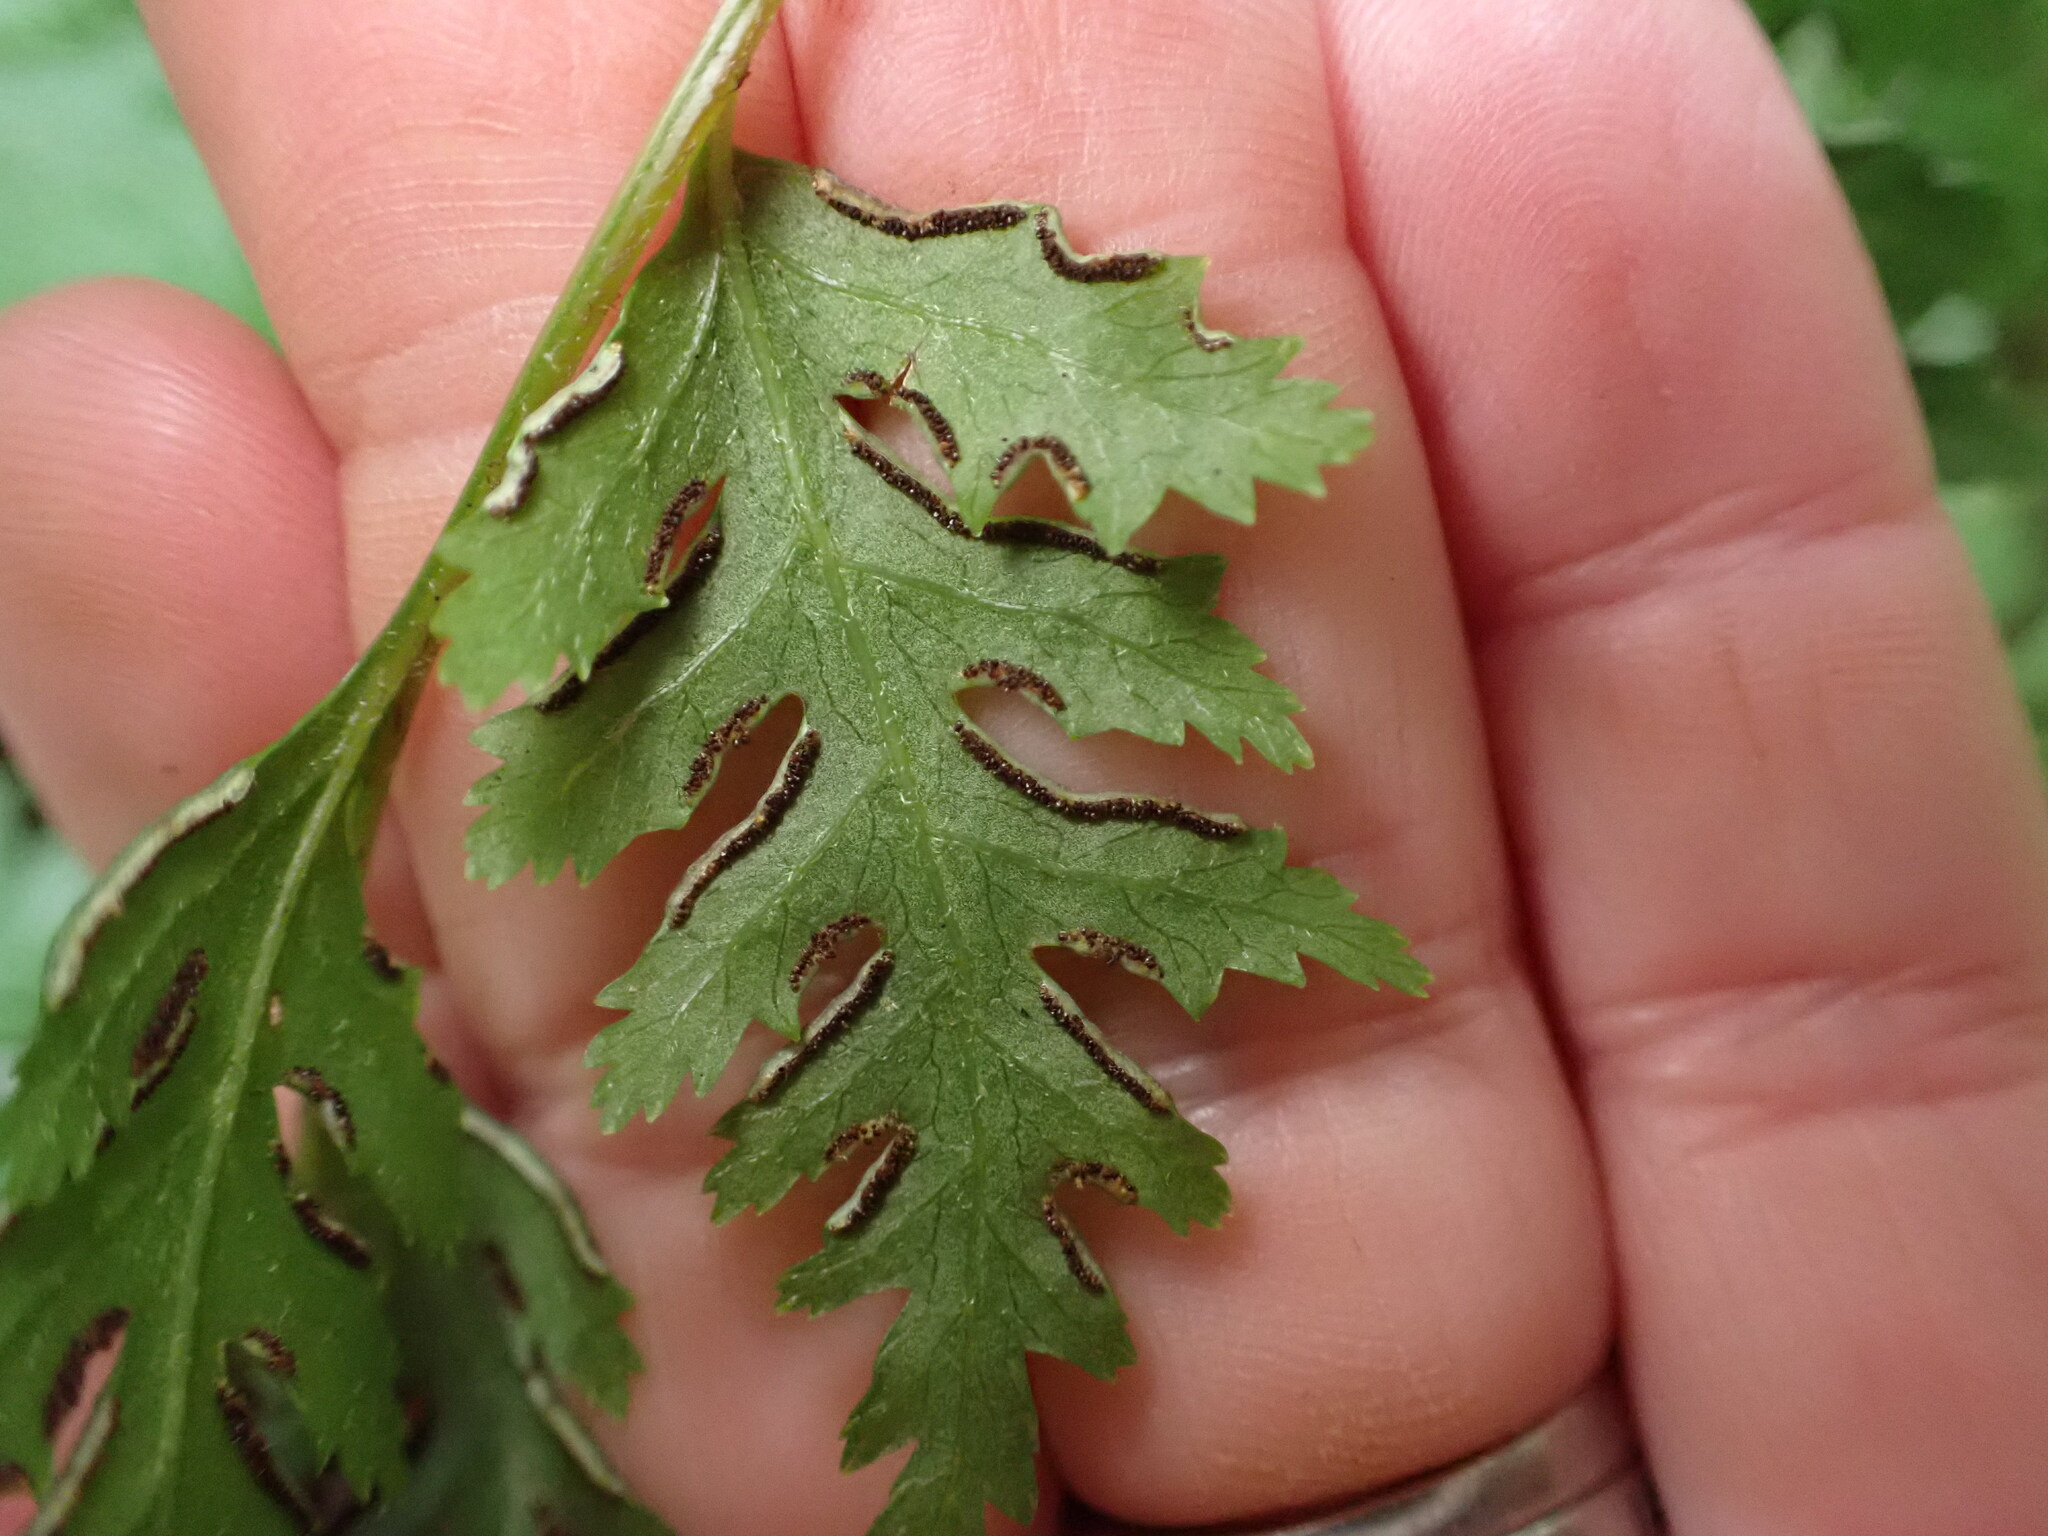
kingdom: Plantae
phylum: Tracheophyta
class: Polypodiopsida
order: Polypodiales
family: Pteridaceae
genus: Pteris
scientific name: Pteris macilenta
